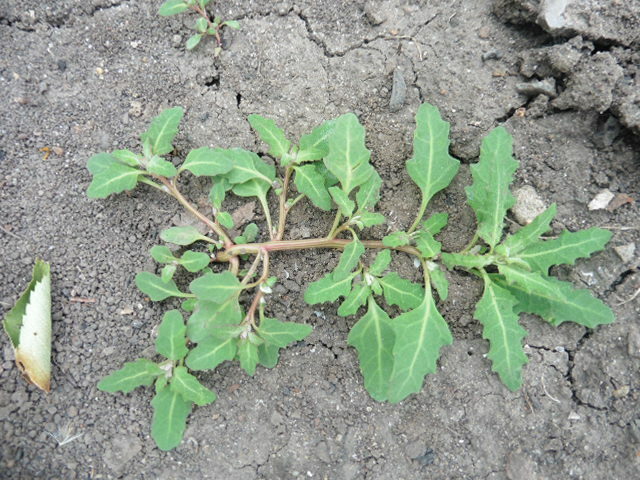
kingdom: Plantae
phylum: Tracheophyta
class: Magnoliopsida
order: Caryophyllales
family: Amaranthaceae
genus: Oxybasis
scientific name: Oxybasis glauca
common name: Glaucous goosefoot
